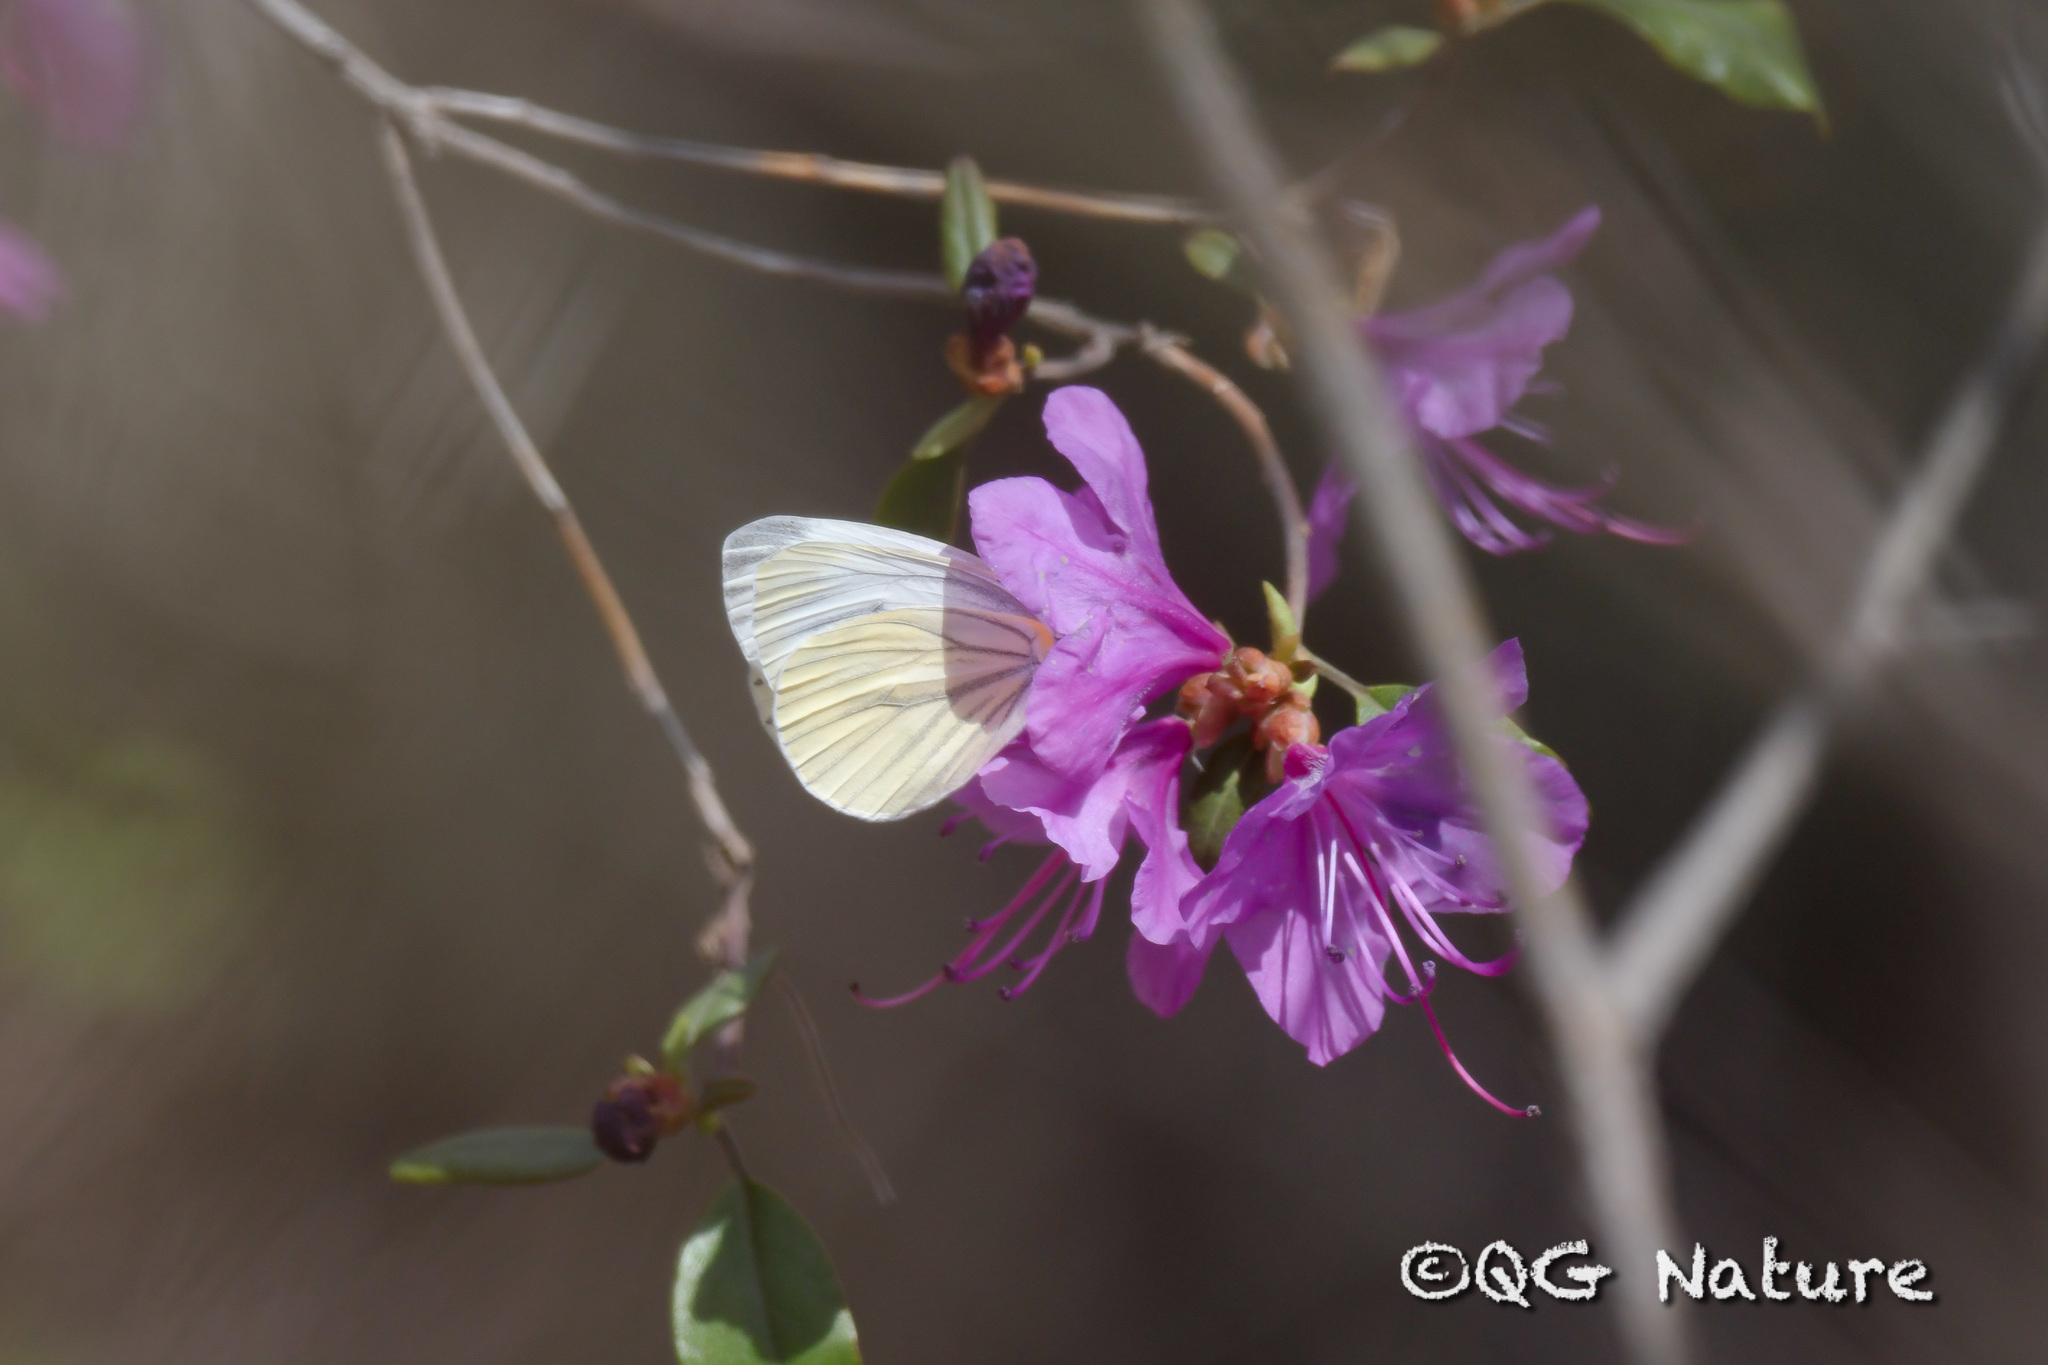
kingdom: Animalia
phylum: Arthropoda
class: Insecta
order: Lepidoptera
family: Pieridae
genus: Pieris
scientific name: Pieris melete
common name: Asian green-veined white
